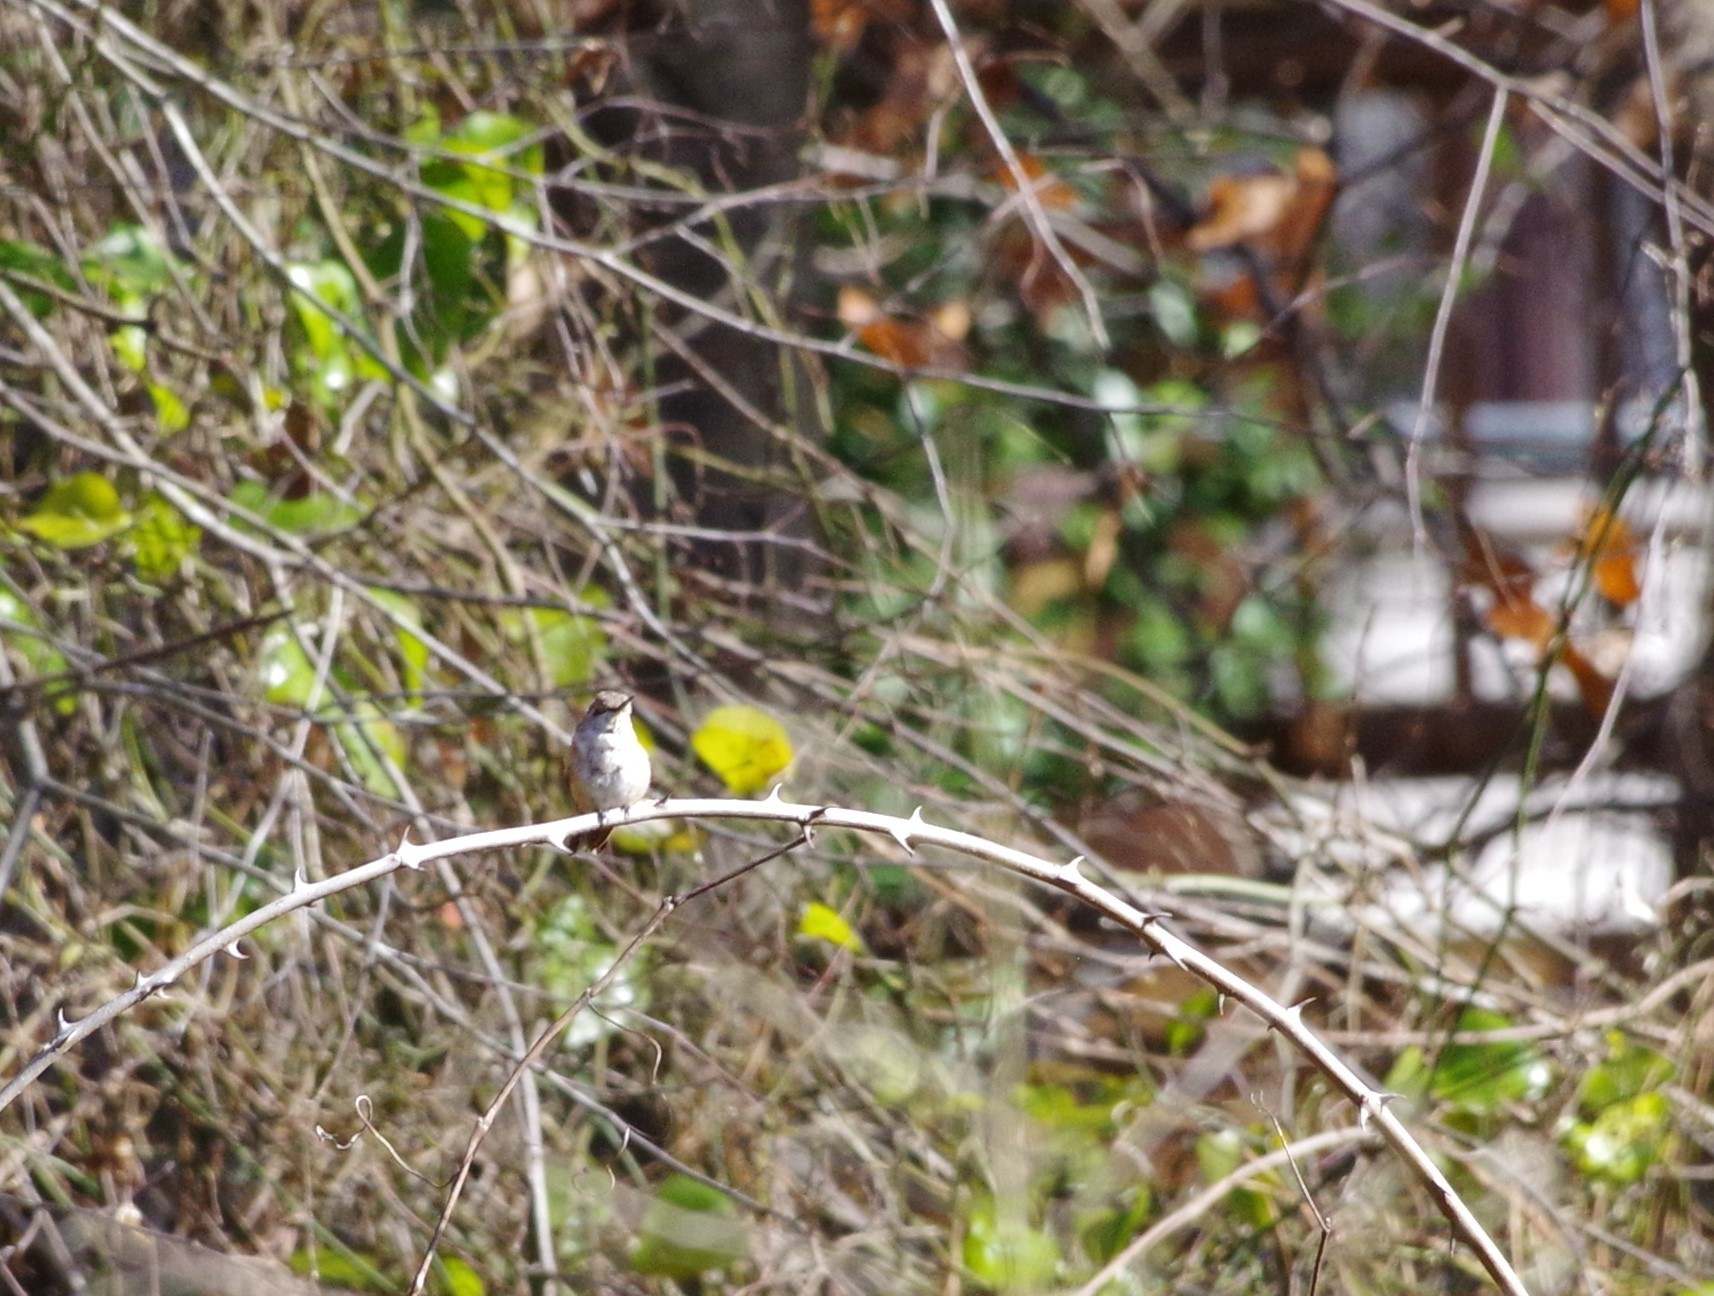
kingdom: Animalia
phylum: Chordata
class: Aves
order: Apodiformes
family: Trochilidae
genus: Selasphorus
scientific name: Selasphorus rufus
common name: Rufous hummingbird
